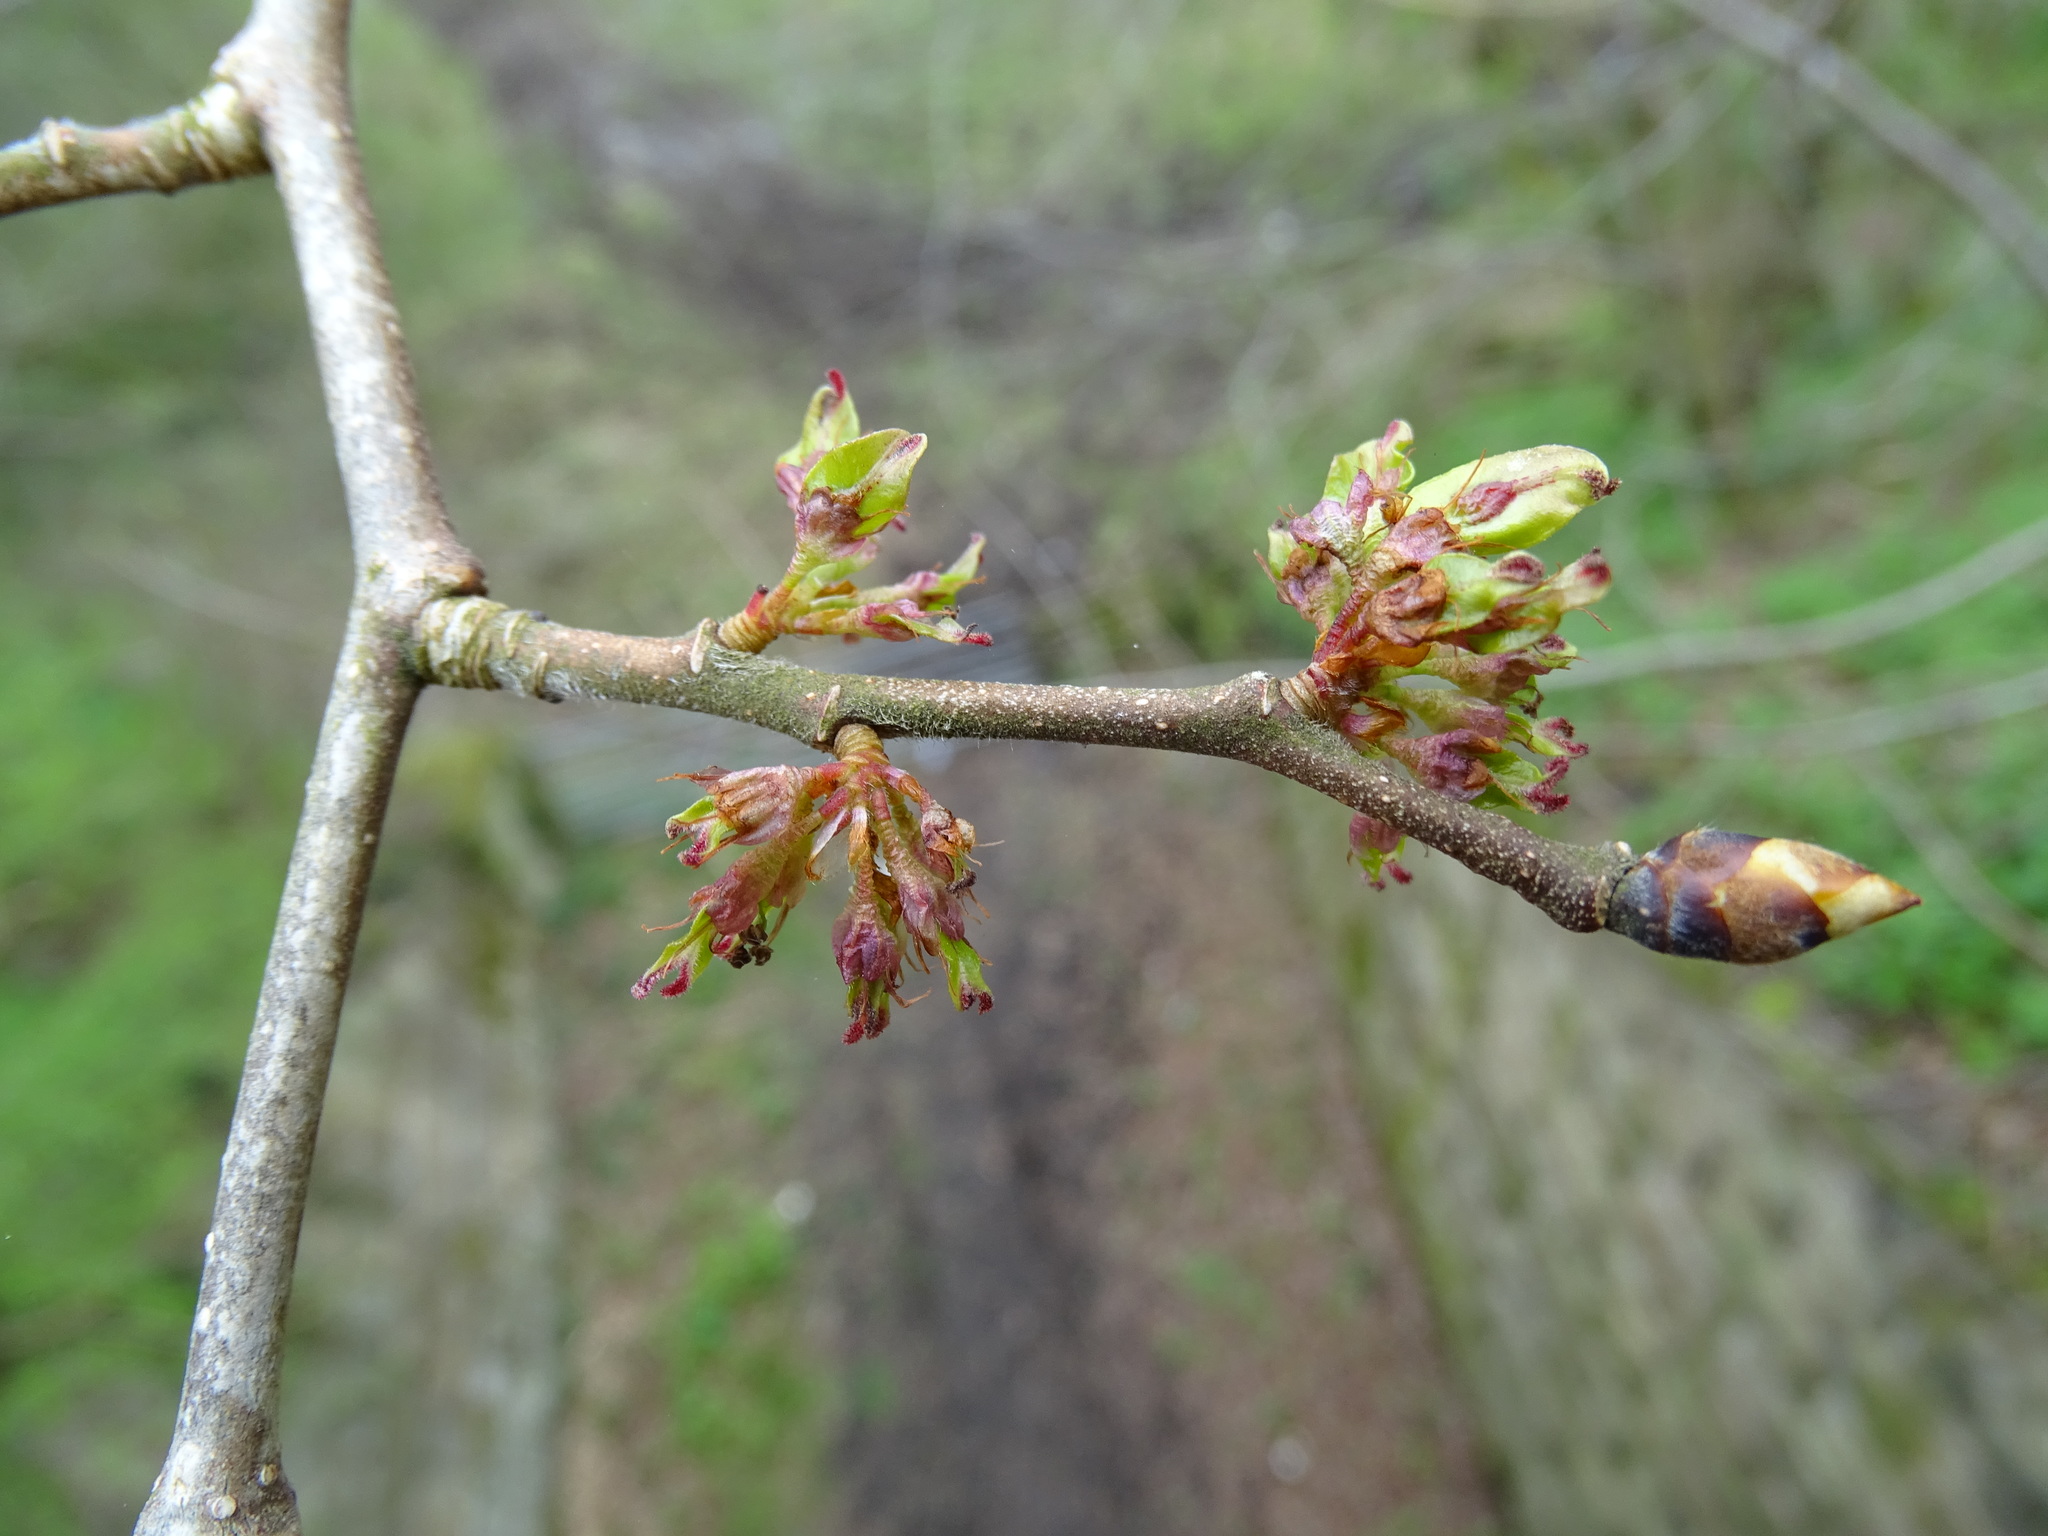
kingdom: Plantae
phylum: Tracheophyta
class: Magnoliopsida
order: Rosales
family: Ulmaceae
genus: Ulmus
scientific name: Ulmus glabra
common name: Wych elm
